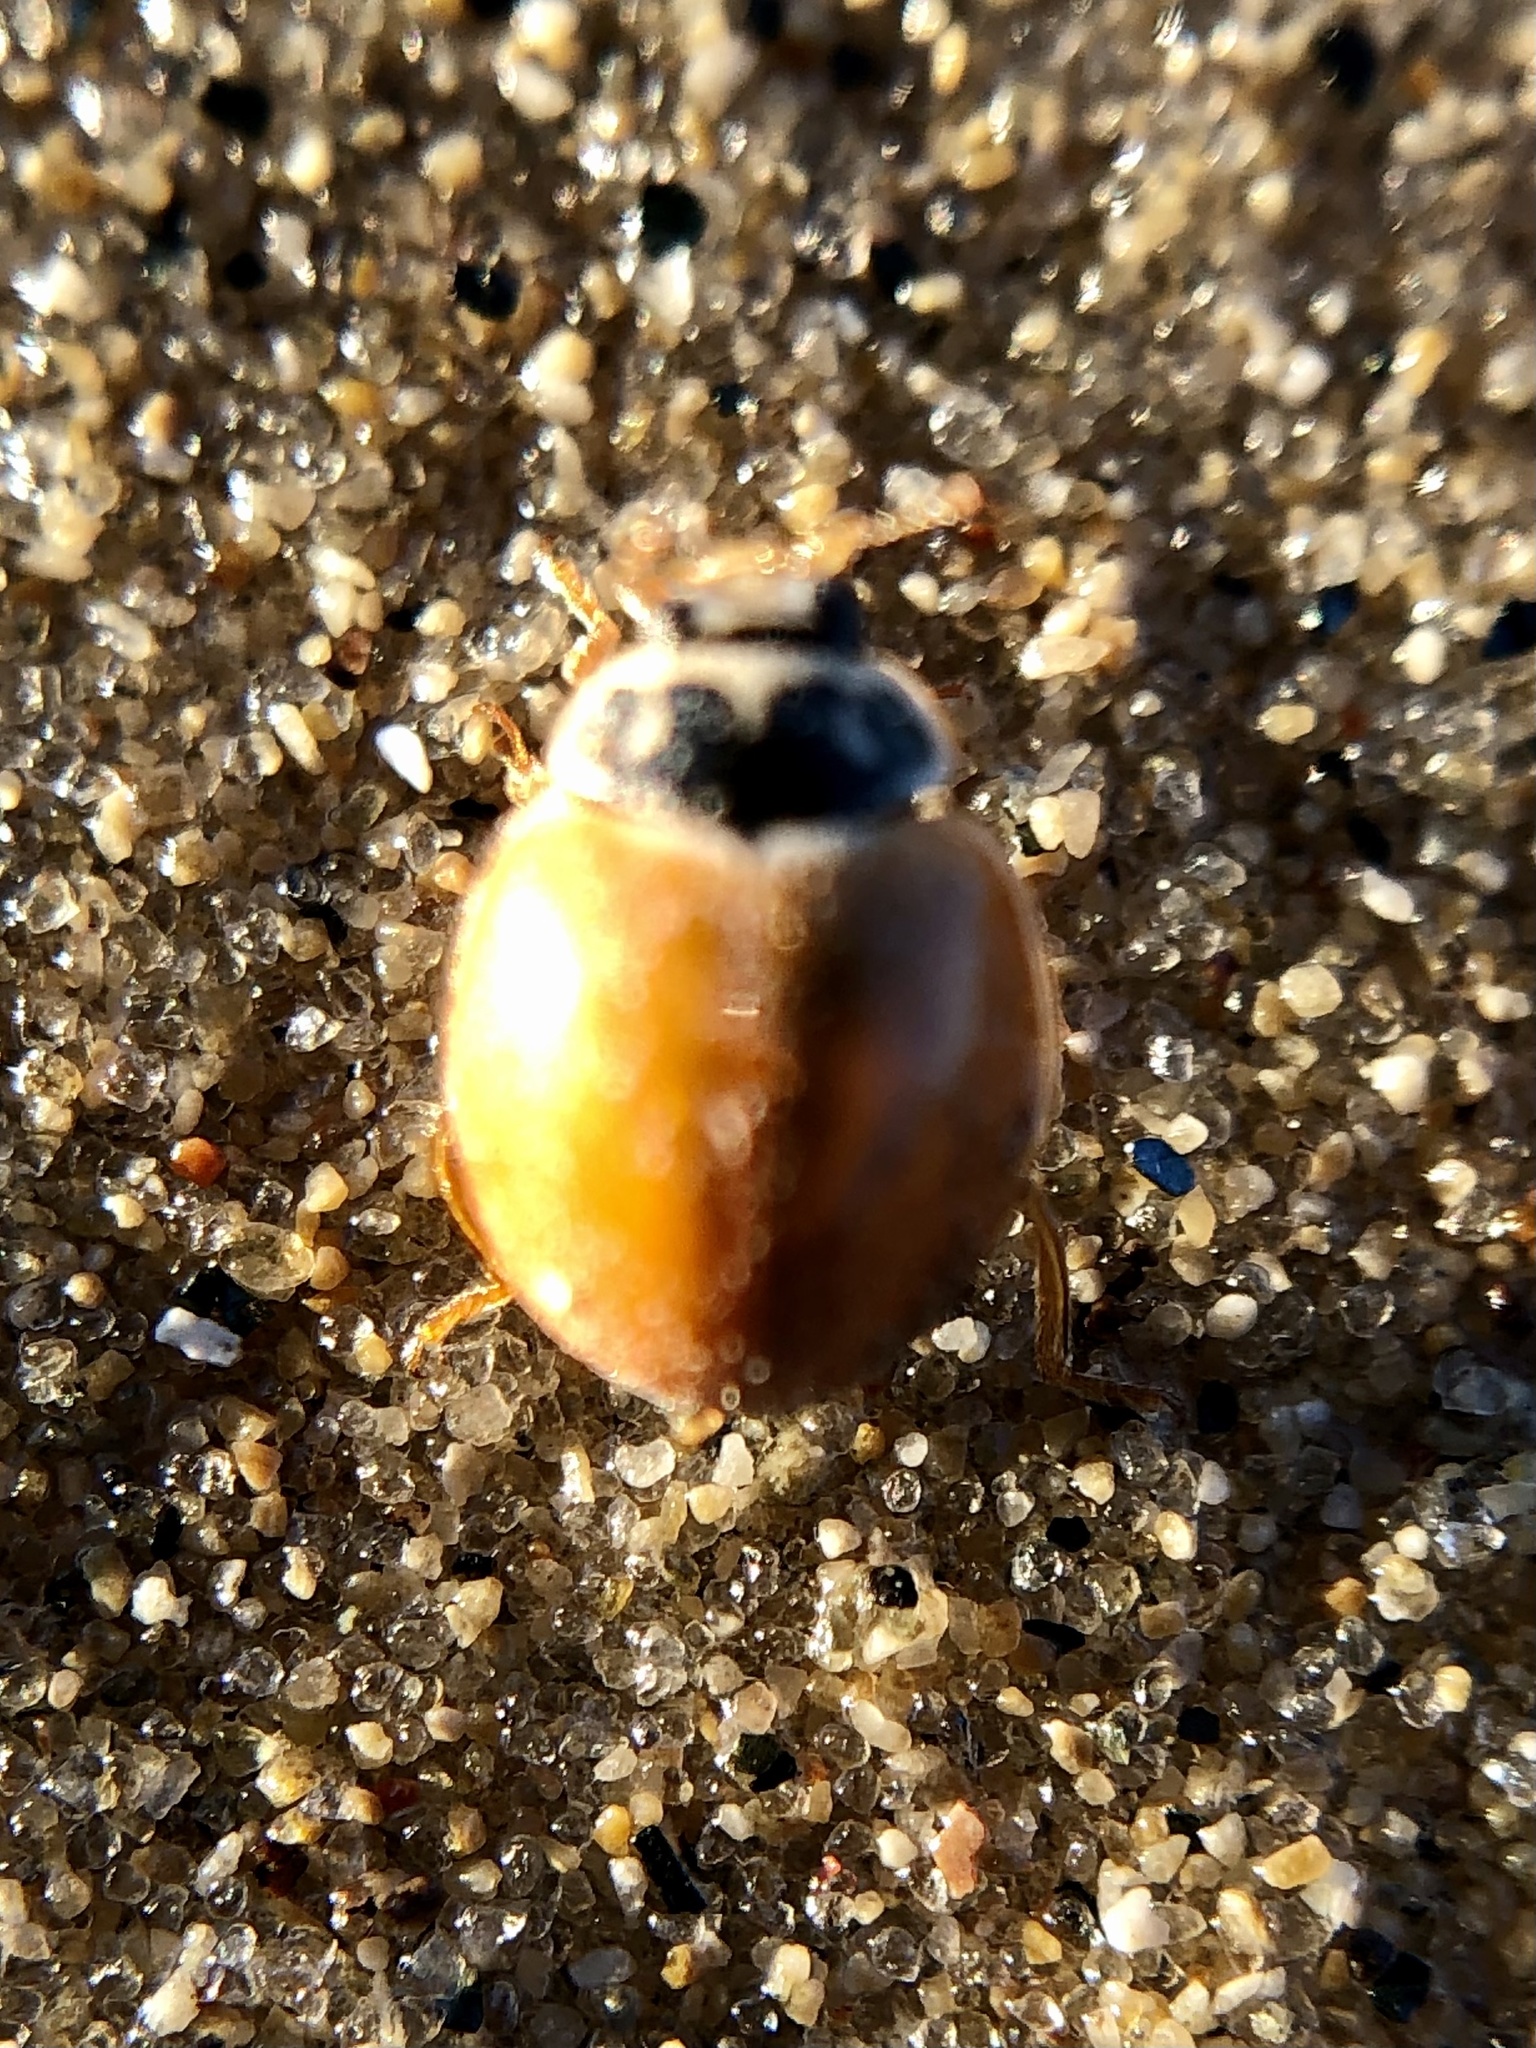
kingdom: Animalia
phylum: Arthropoda
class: Insecta
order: Coleoptera
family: Coccinellidae
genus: Cycloneda
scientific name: Cycloneda munda
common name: Polished lady beetle
